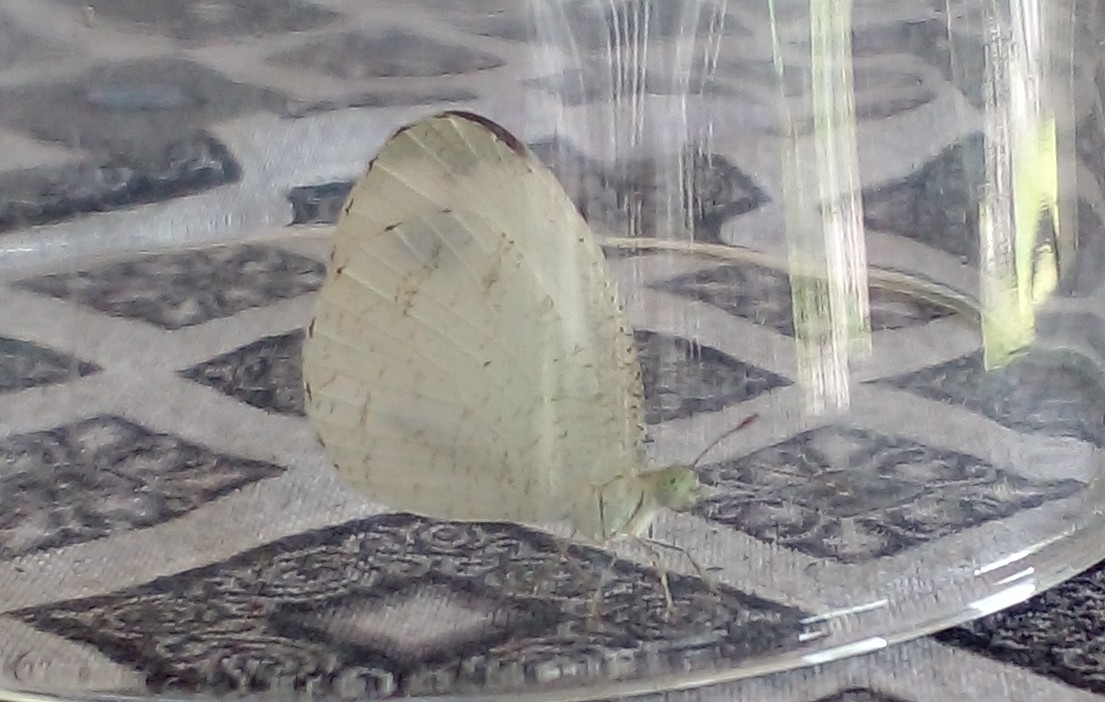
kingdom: Animalia
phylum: Arthropoda
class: Insecta
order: Lepidoptera
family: Pieridae
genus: Leptosia
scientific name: Leptosia nina
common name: Psyche
